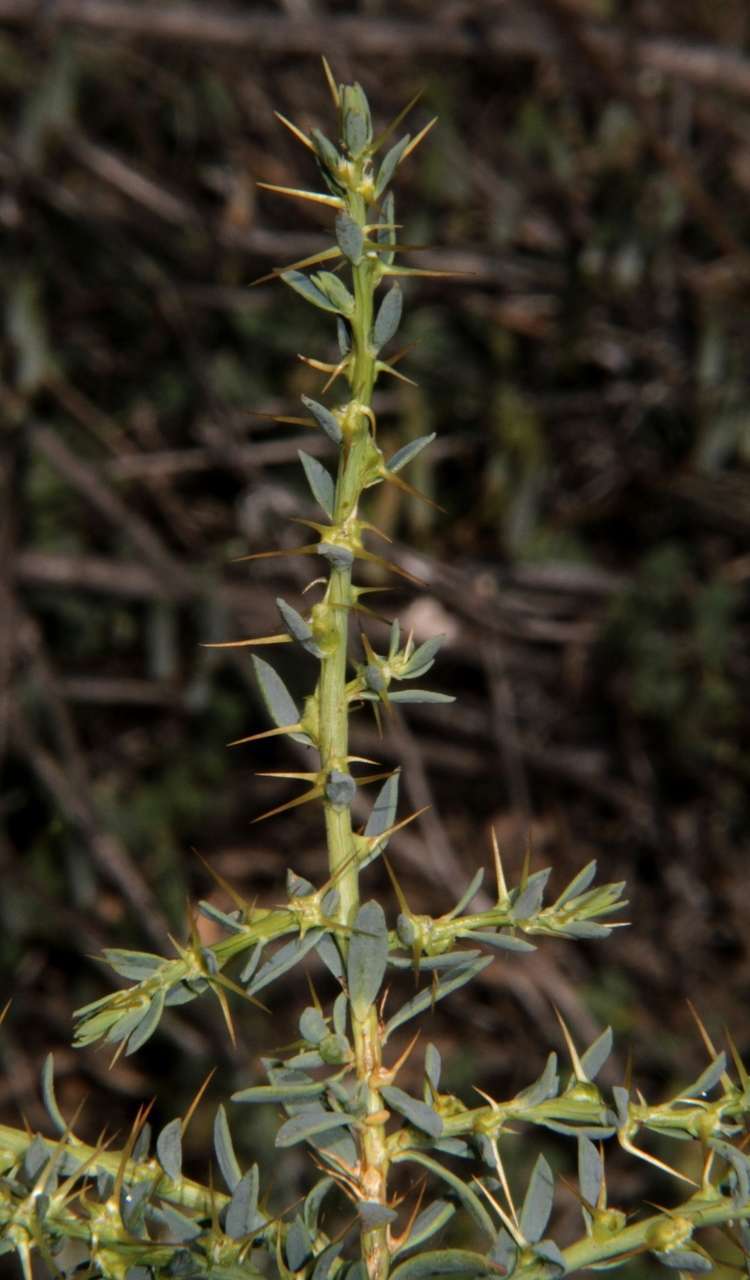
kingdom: Plantae
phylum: Tracheophyta
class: Magnoliopsida
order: Caryophyllales
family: Amaranthaceae
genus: Sclerolaena
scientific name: Sclerolaena muricata
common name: Roly-poly
